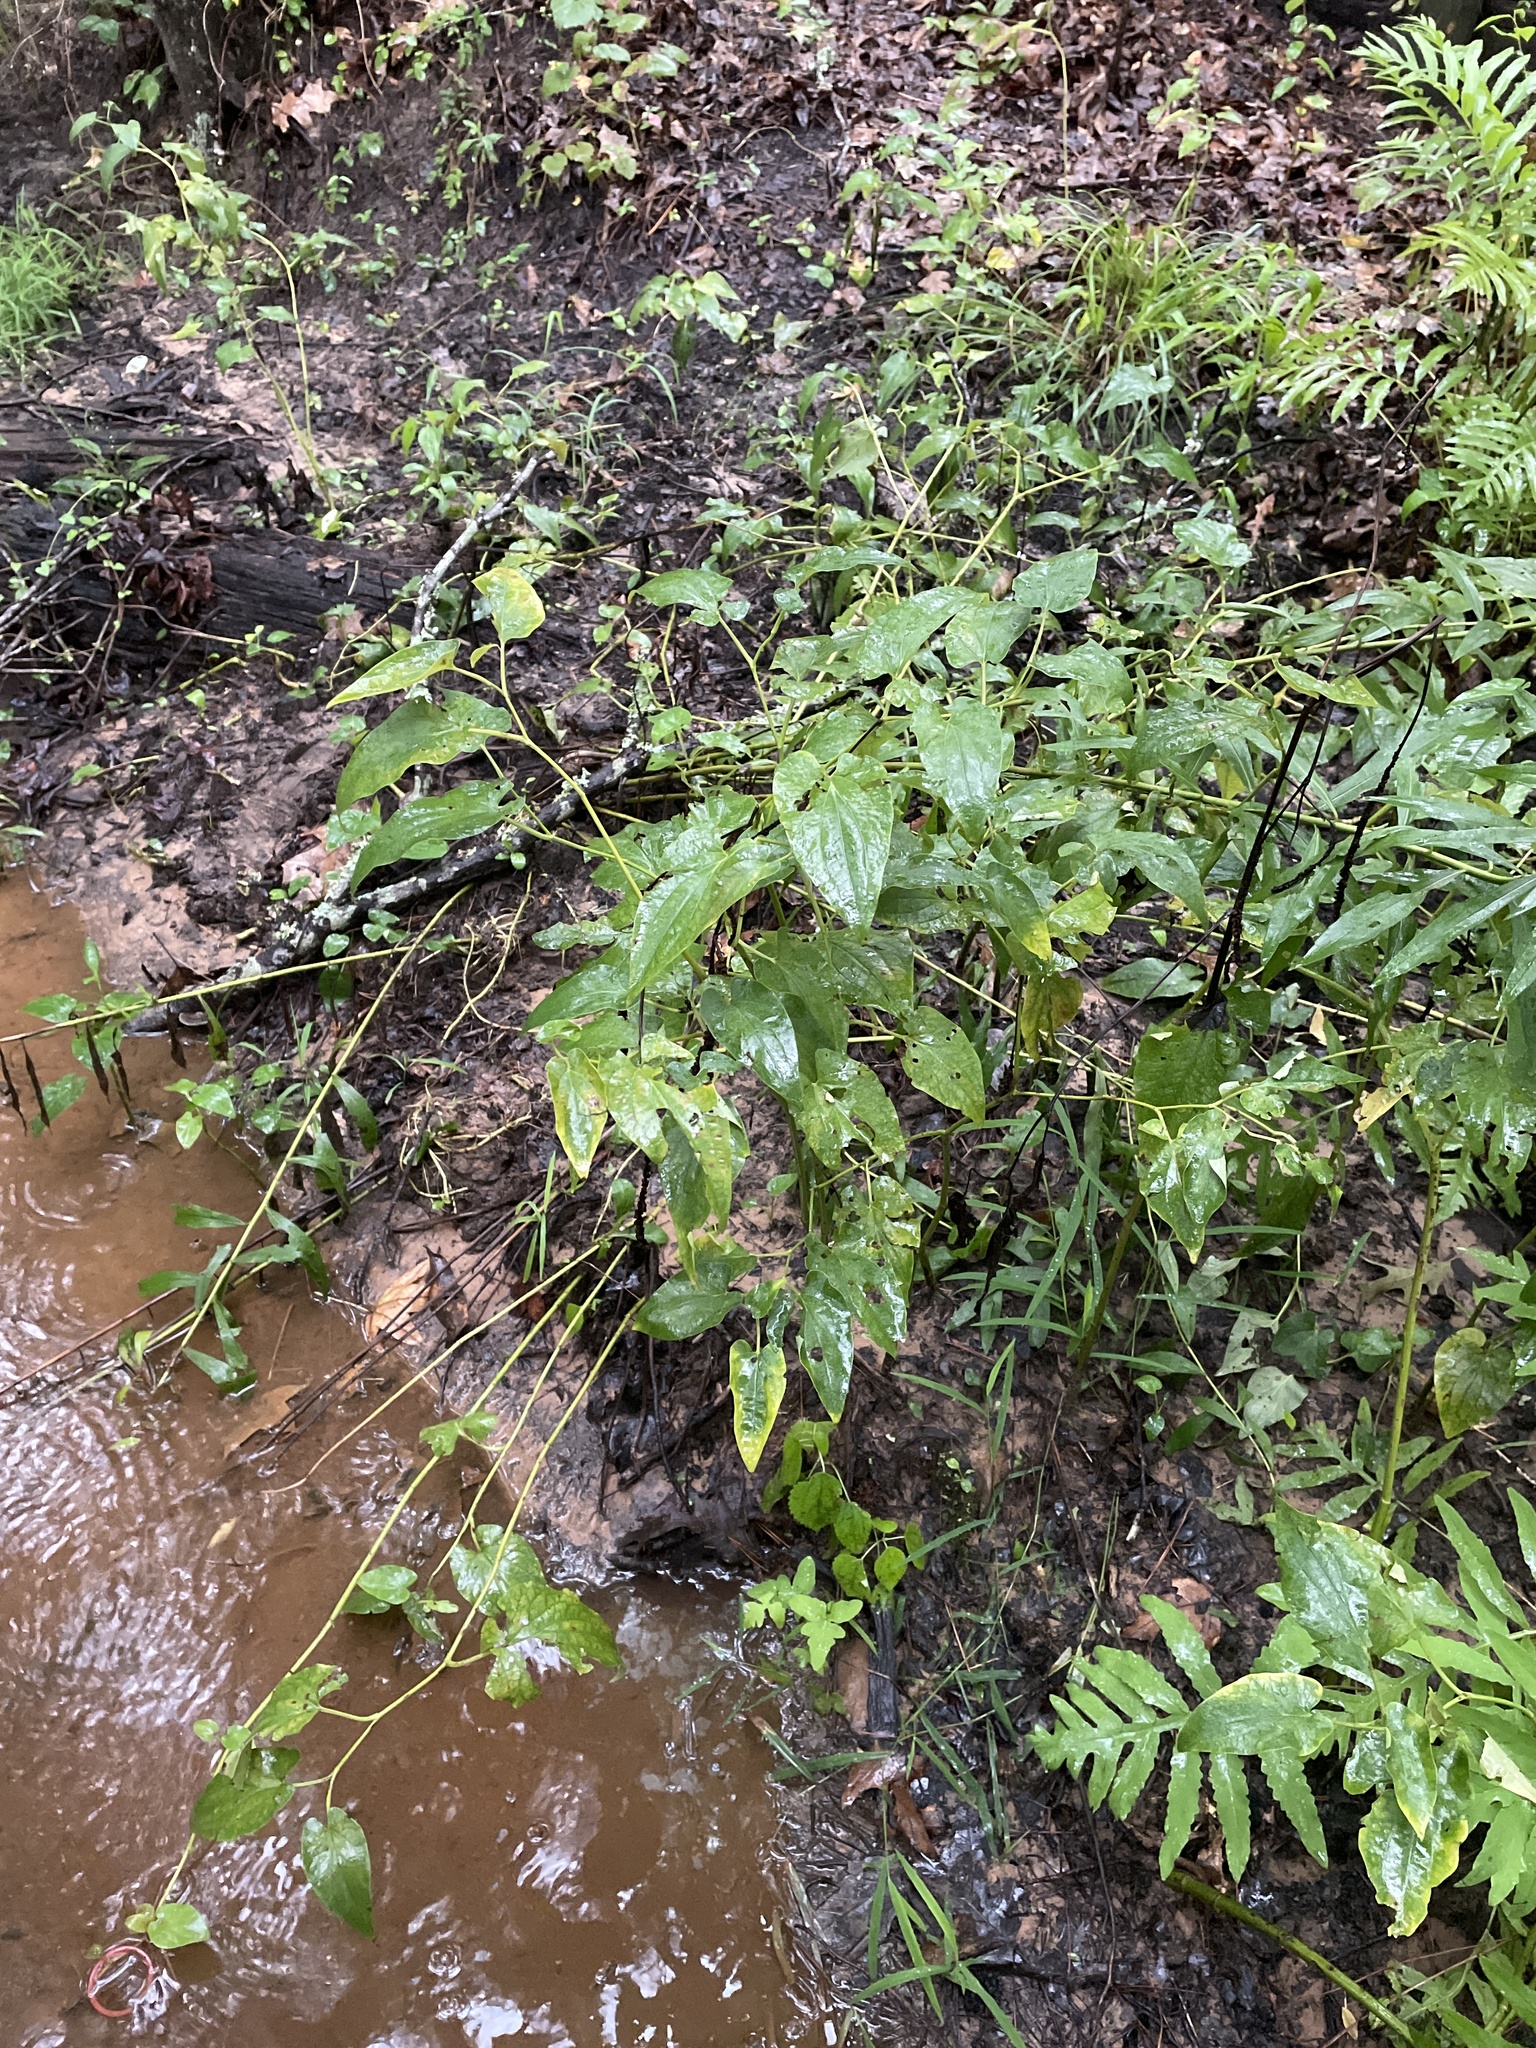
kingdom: Plantae
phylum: Tracheophyta
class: Magnoliopsida
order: Piperales
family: Saururaceae
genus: Saururus
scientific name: Saururus cernuus
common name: Lizard's-tail
